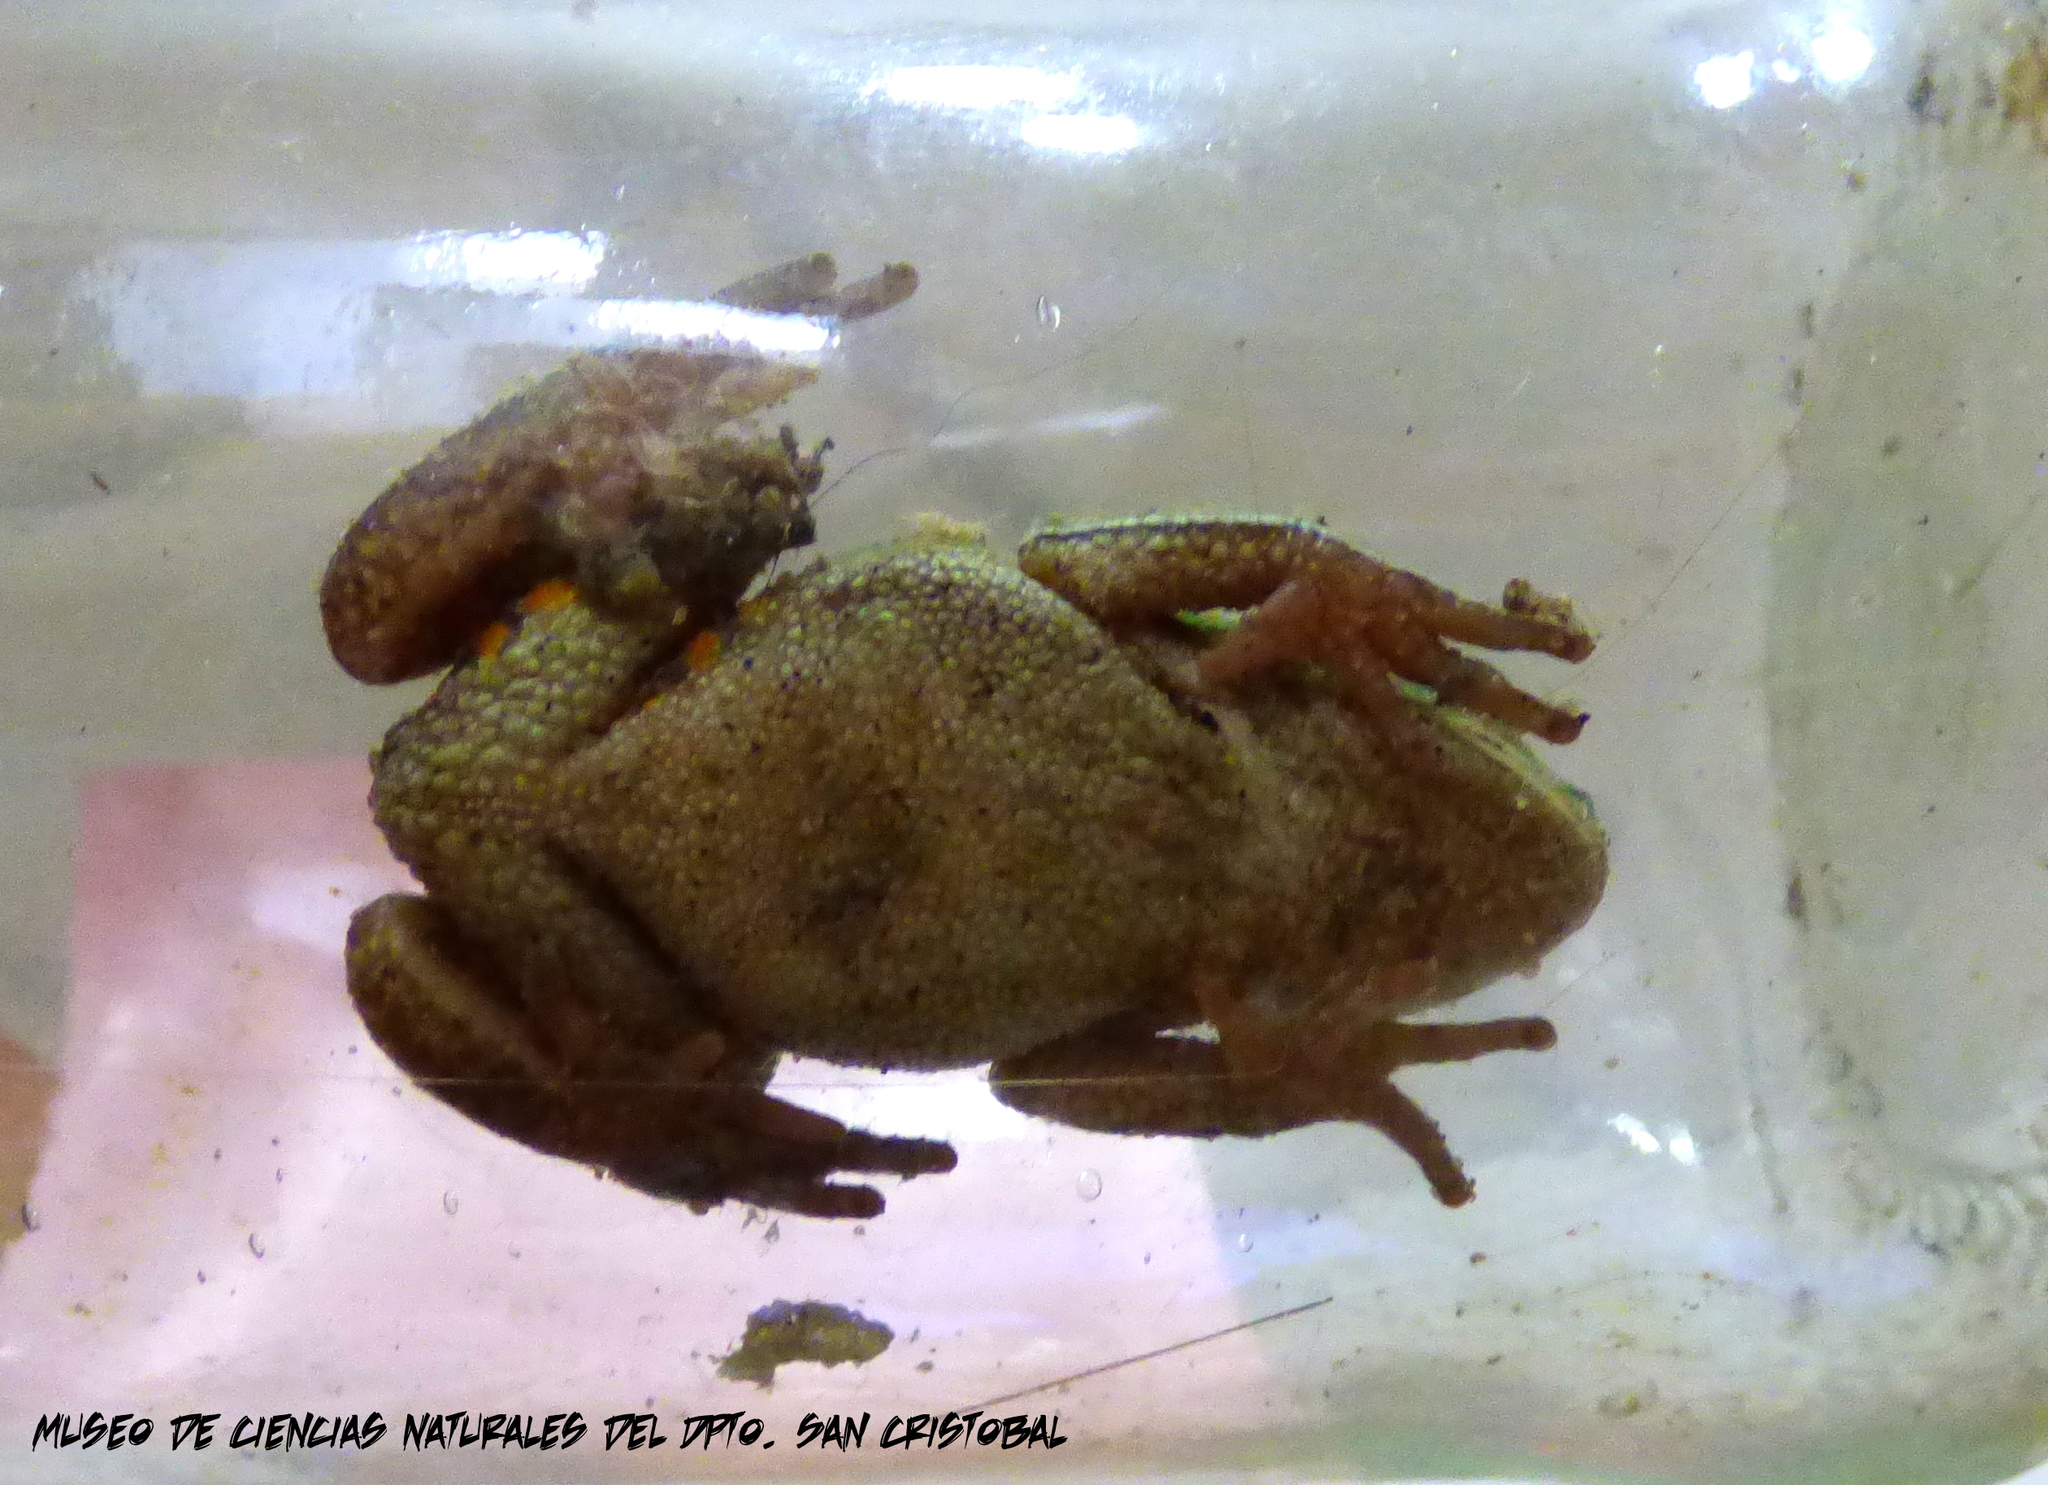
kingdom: Animalia
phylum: Chordata
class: Amphibia
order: Anura
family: Phyllomedusidae
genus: Pithecopus
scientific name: Pithecopus azureus
